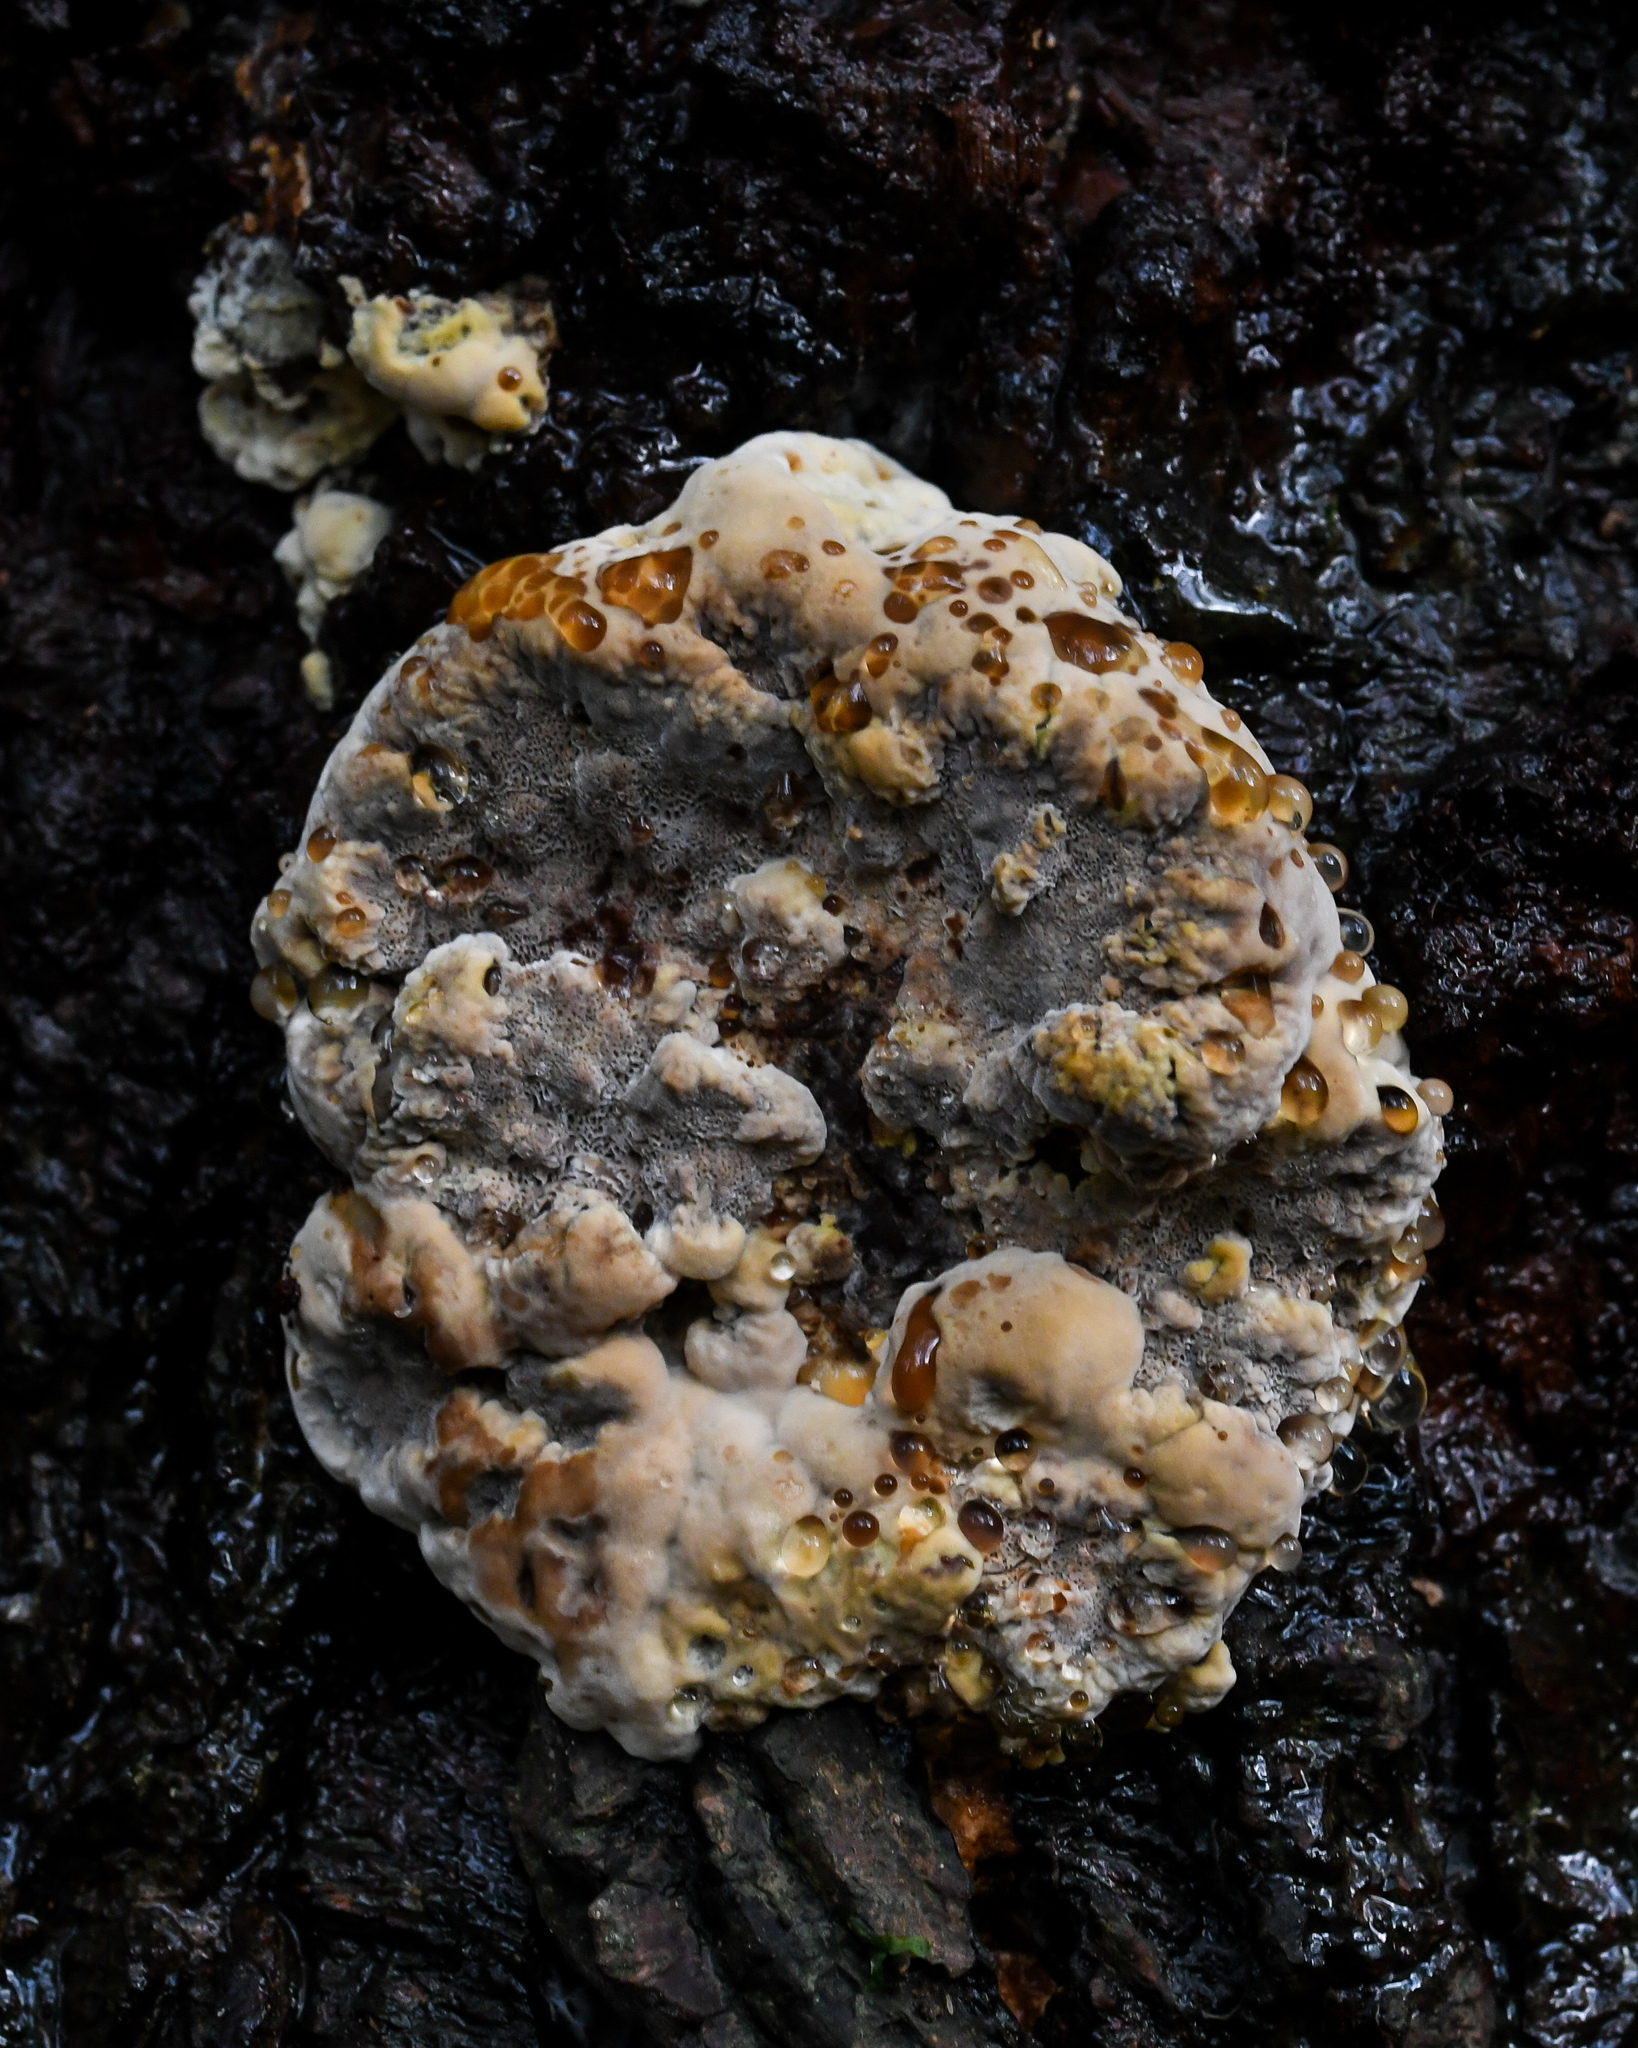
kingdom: Fungi
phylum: Basidiomycota
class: Agaricomycetes
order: Hymenochaetales
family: Hymenochaetaceae
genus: Xanthoporia
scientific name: Xanthoporia radiata
